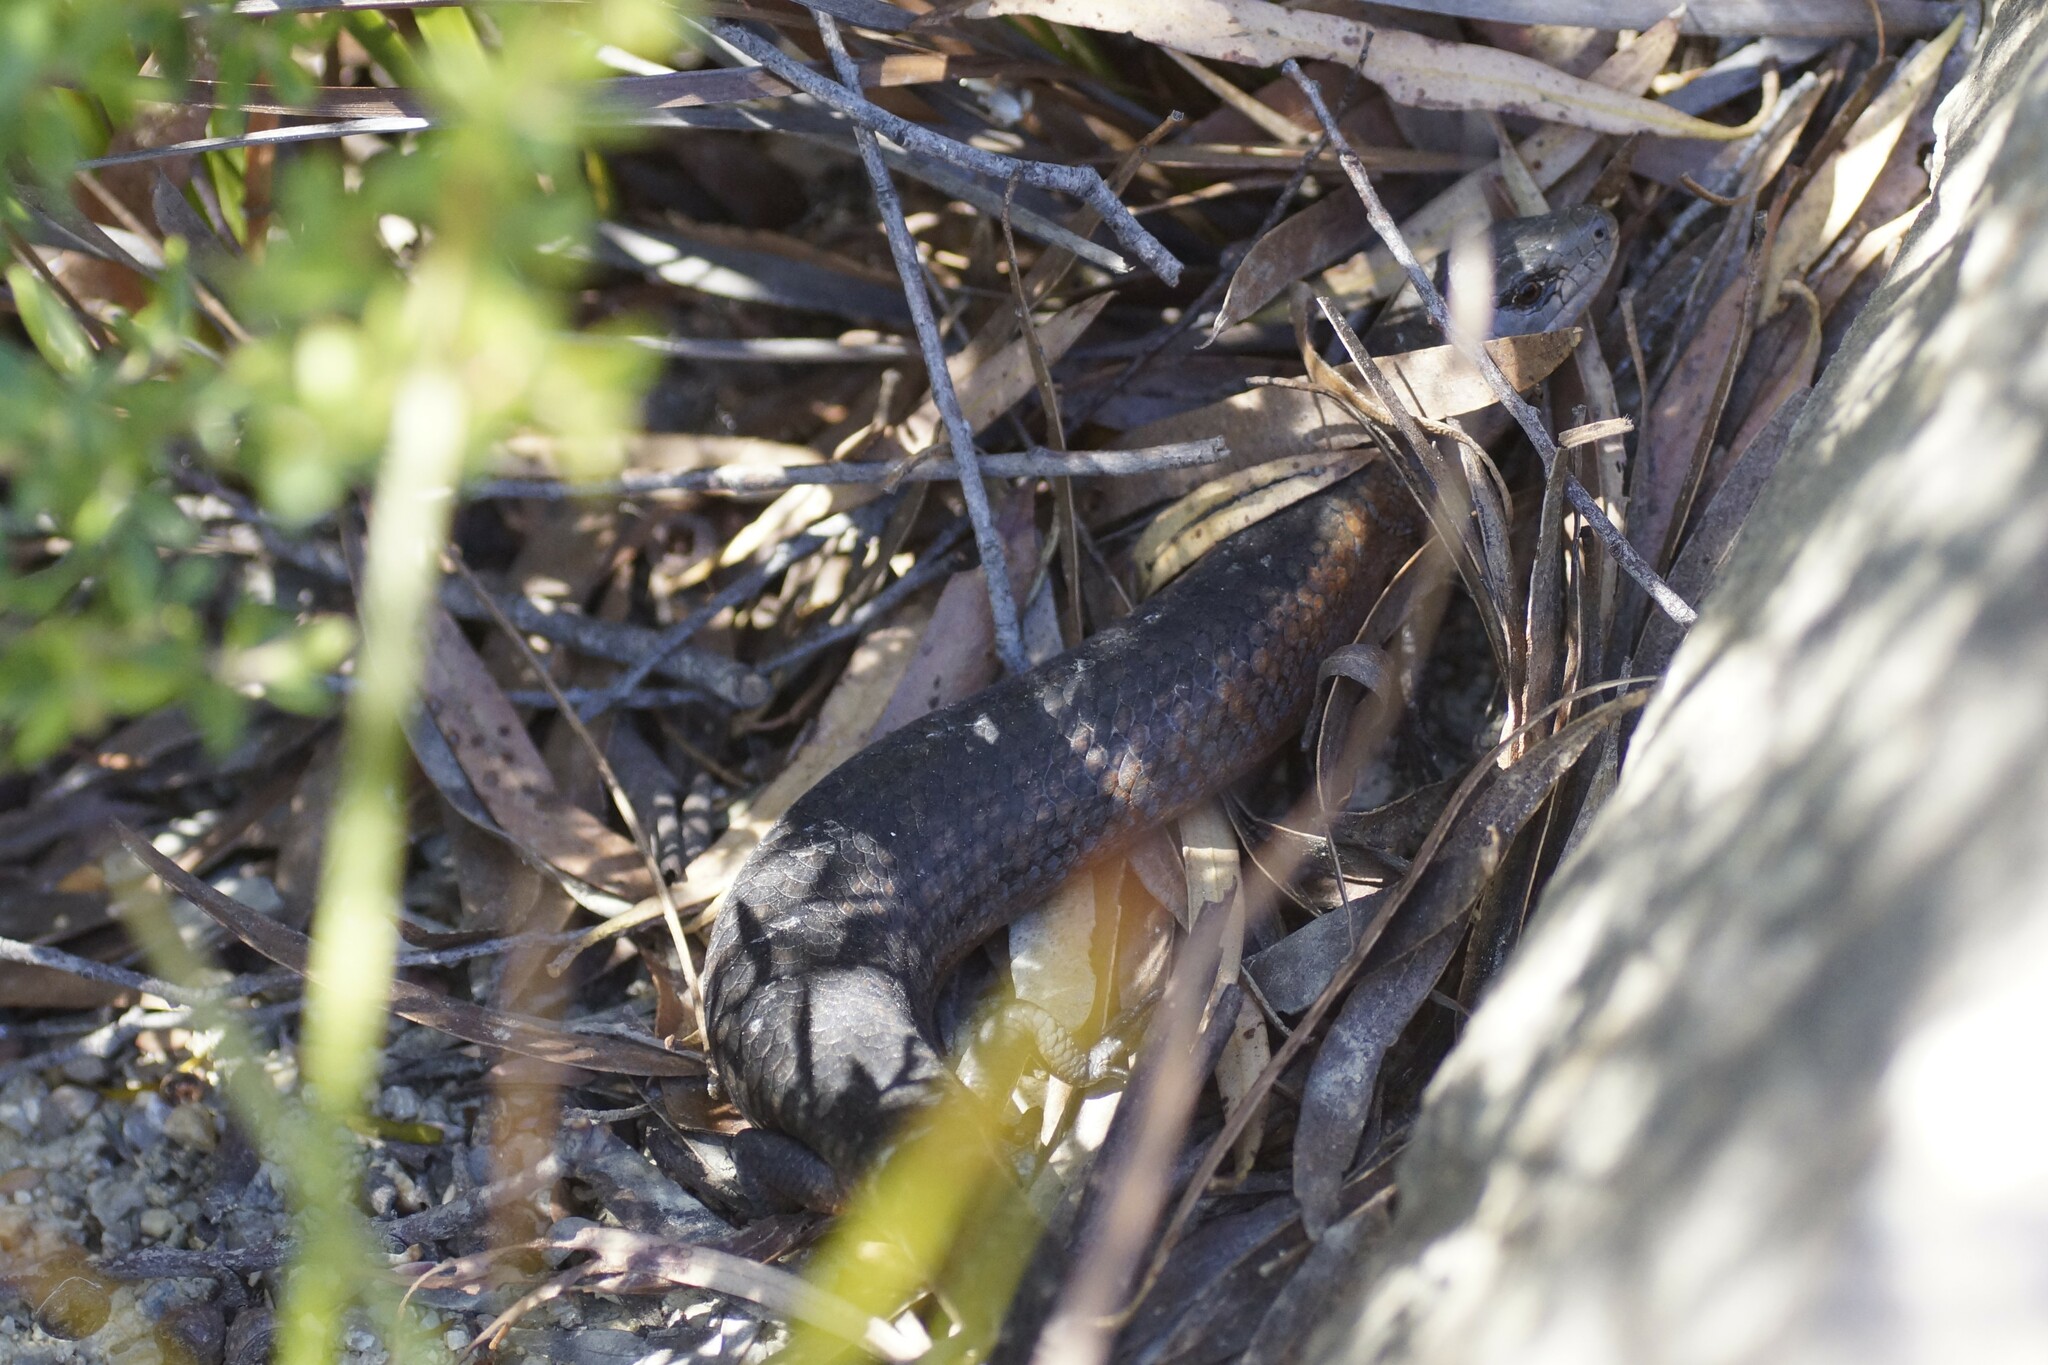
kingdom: Animalia
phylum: Chordata
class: Squamata
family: Scincidae
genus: Cyclodomorphus
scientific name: Cyclodomorphus casuarinae
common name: She-oak skink
